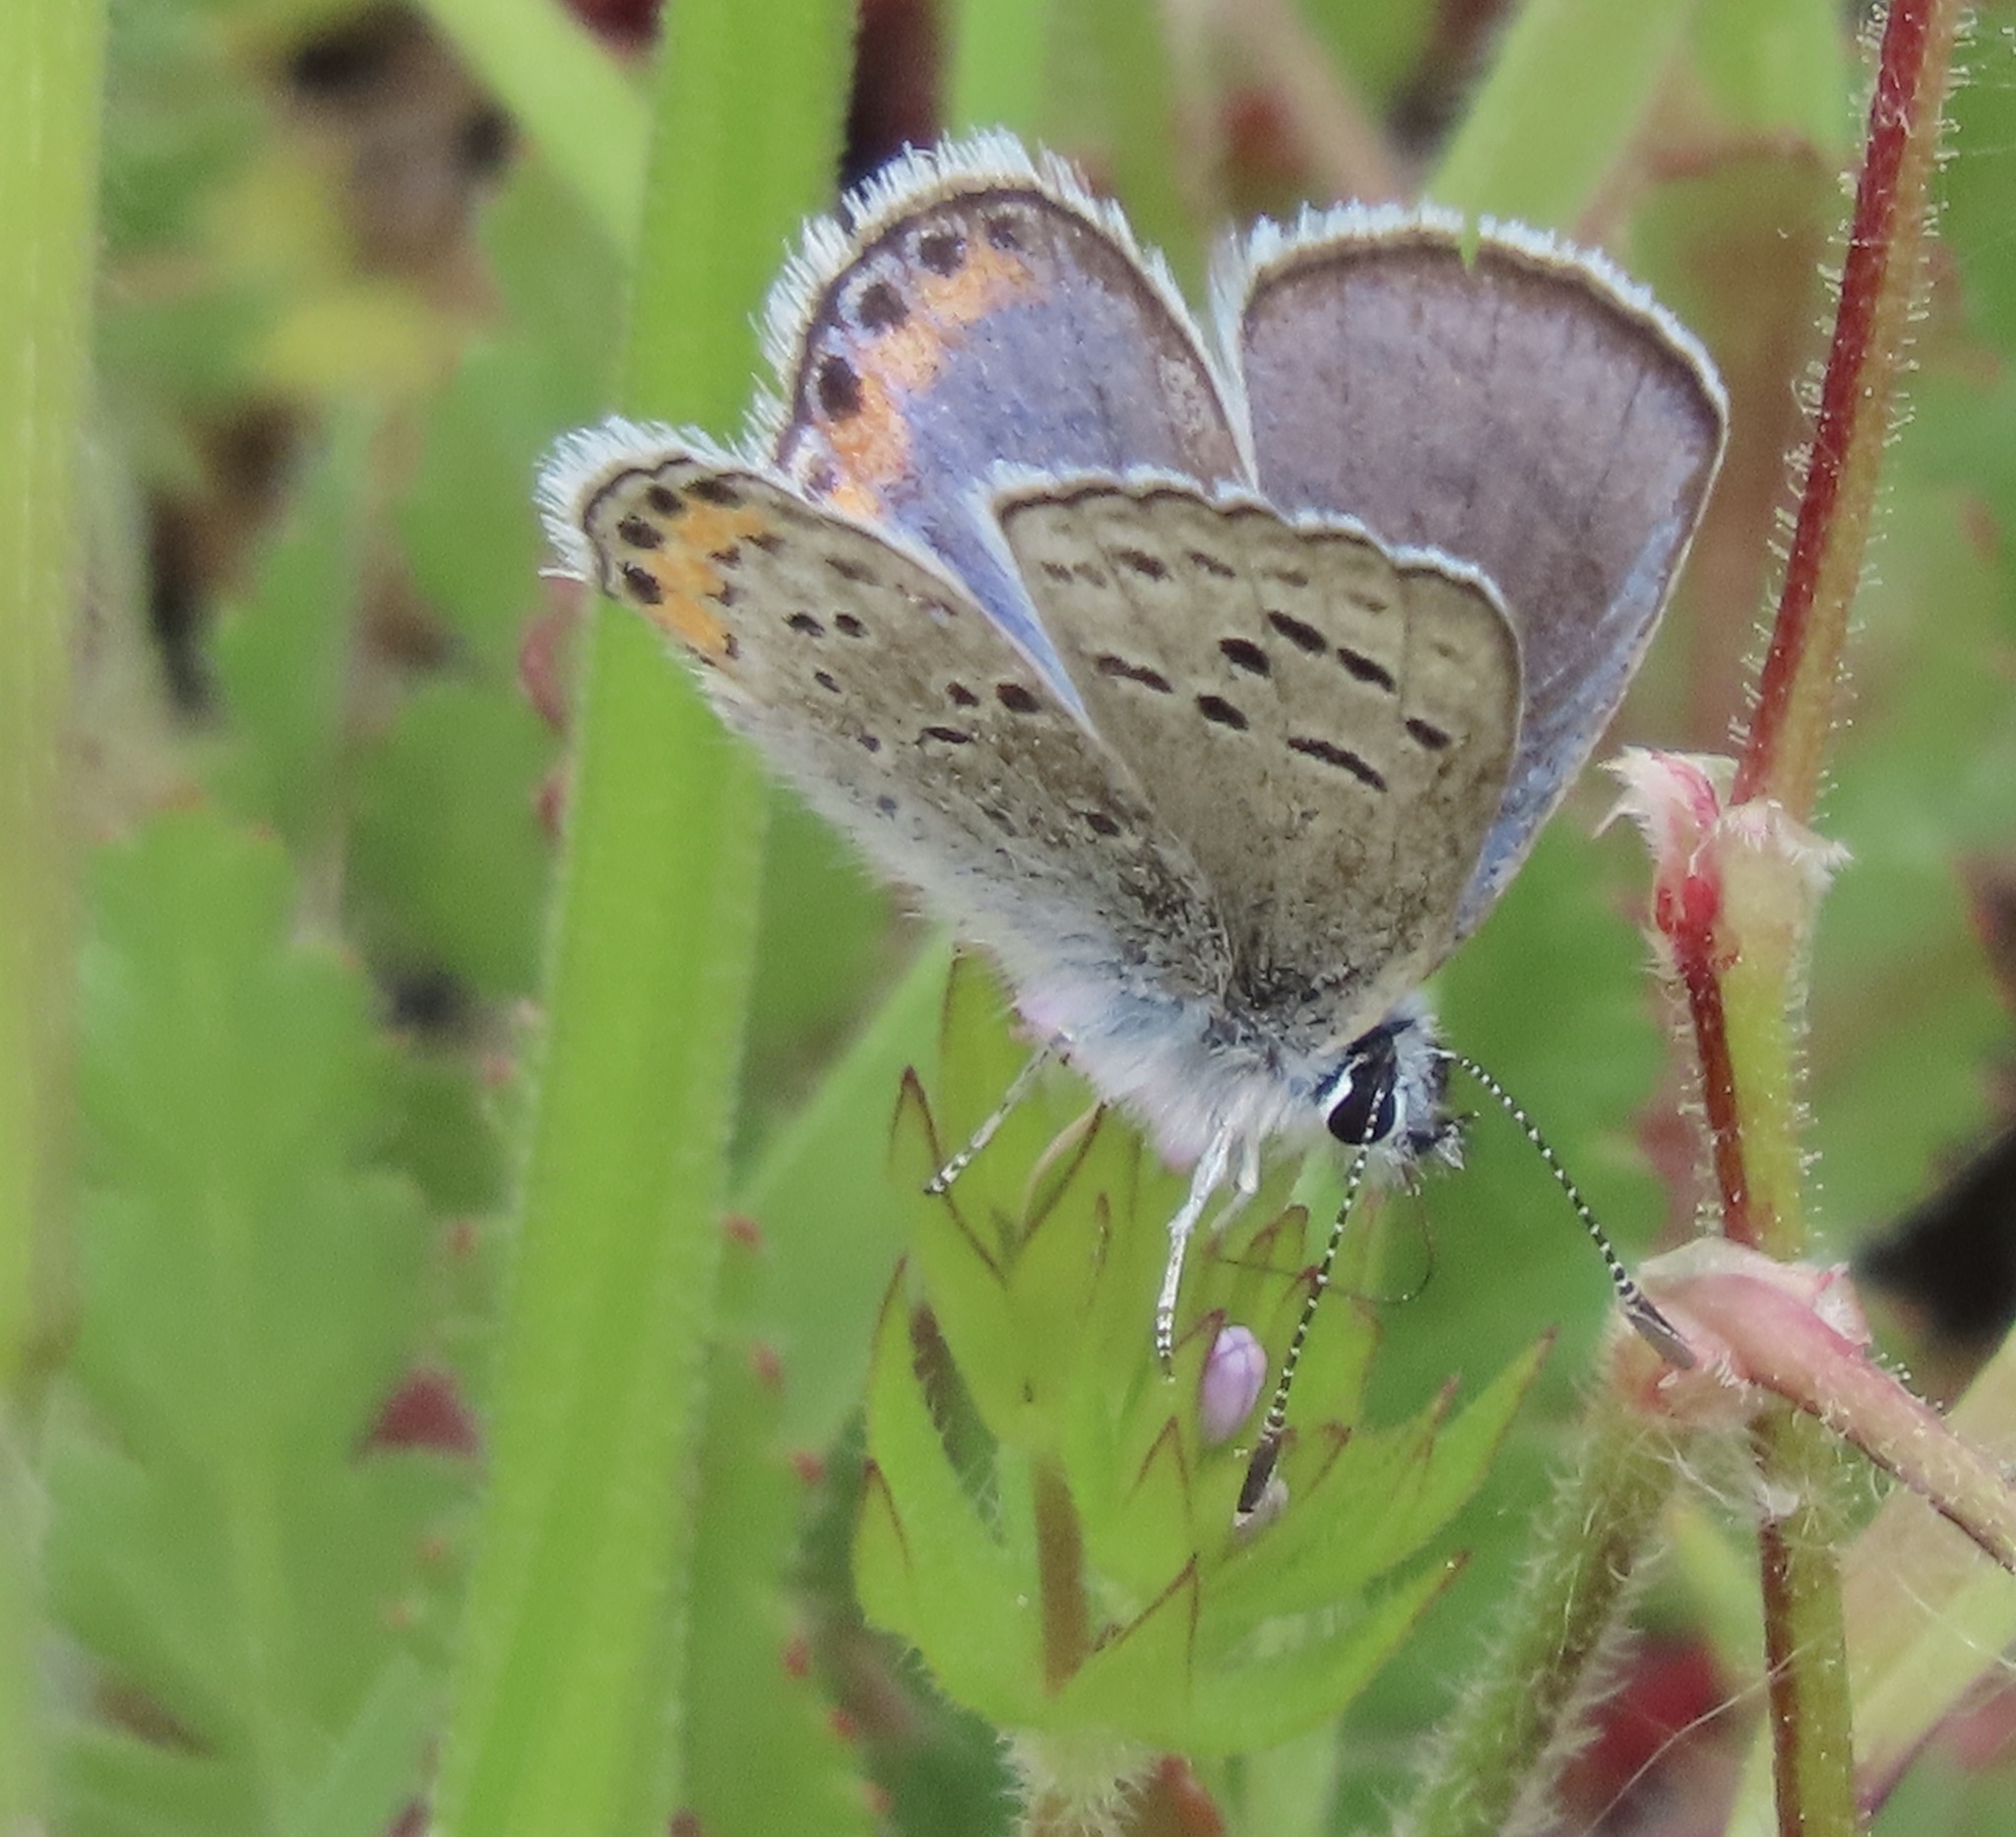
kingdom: Animalia
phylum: Arthropoda
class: Insecta
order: Lepidoptera
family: Lycaenidae
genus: Icaricia
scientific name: Icaricia acmon
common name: Acmon blue
